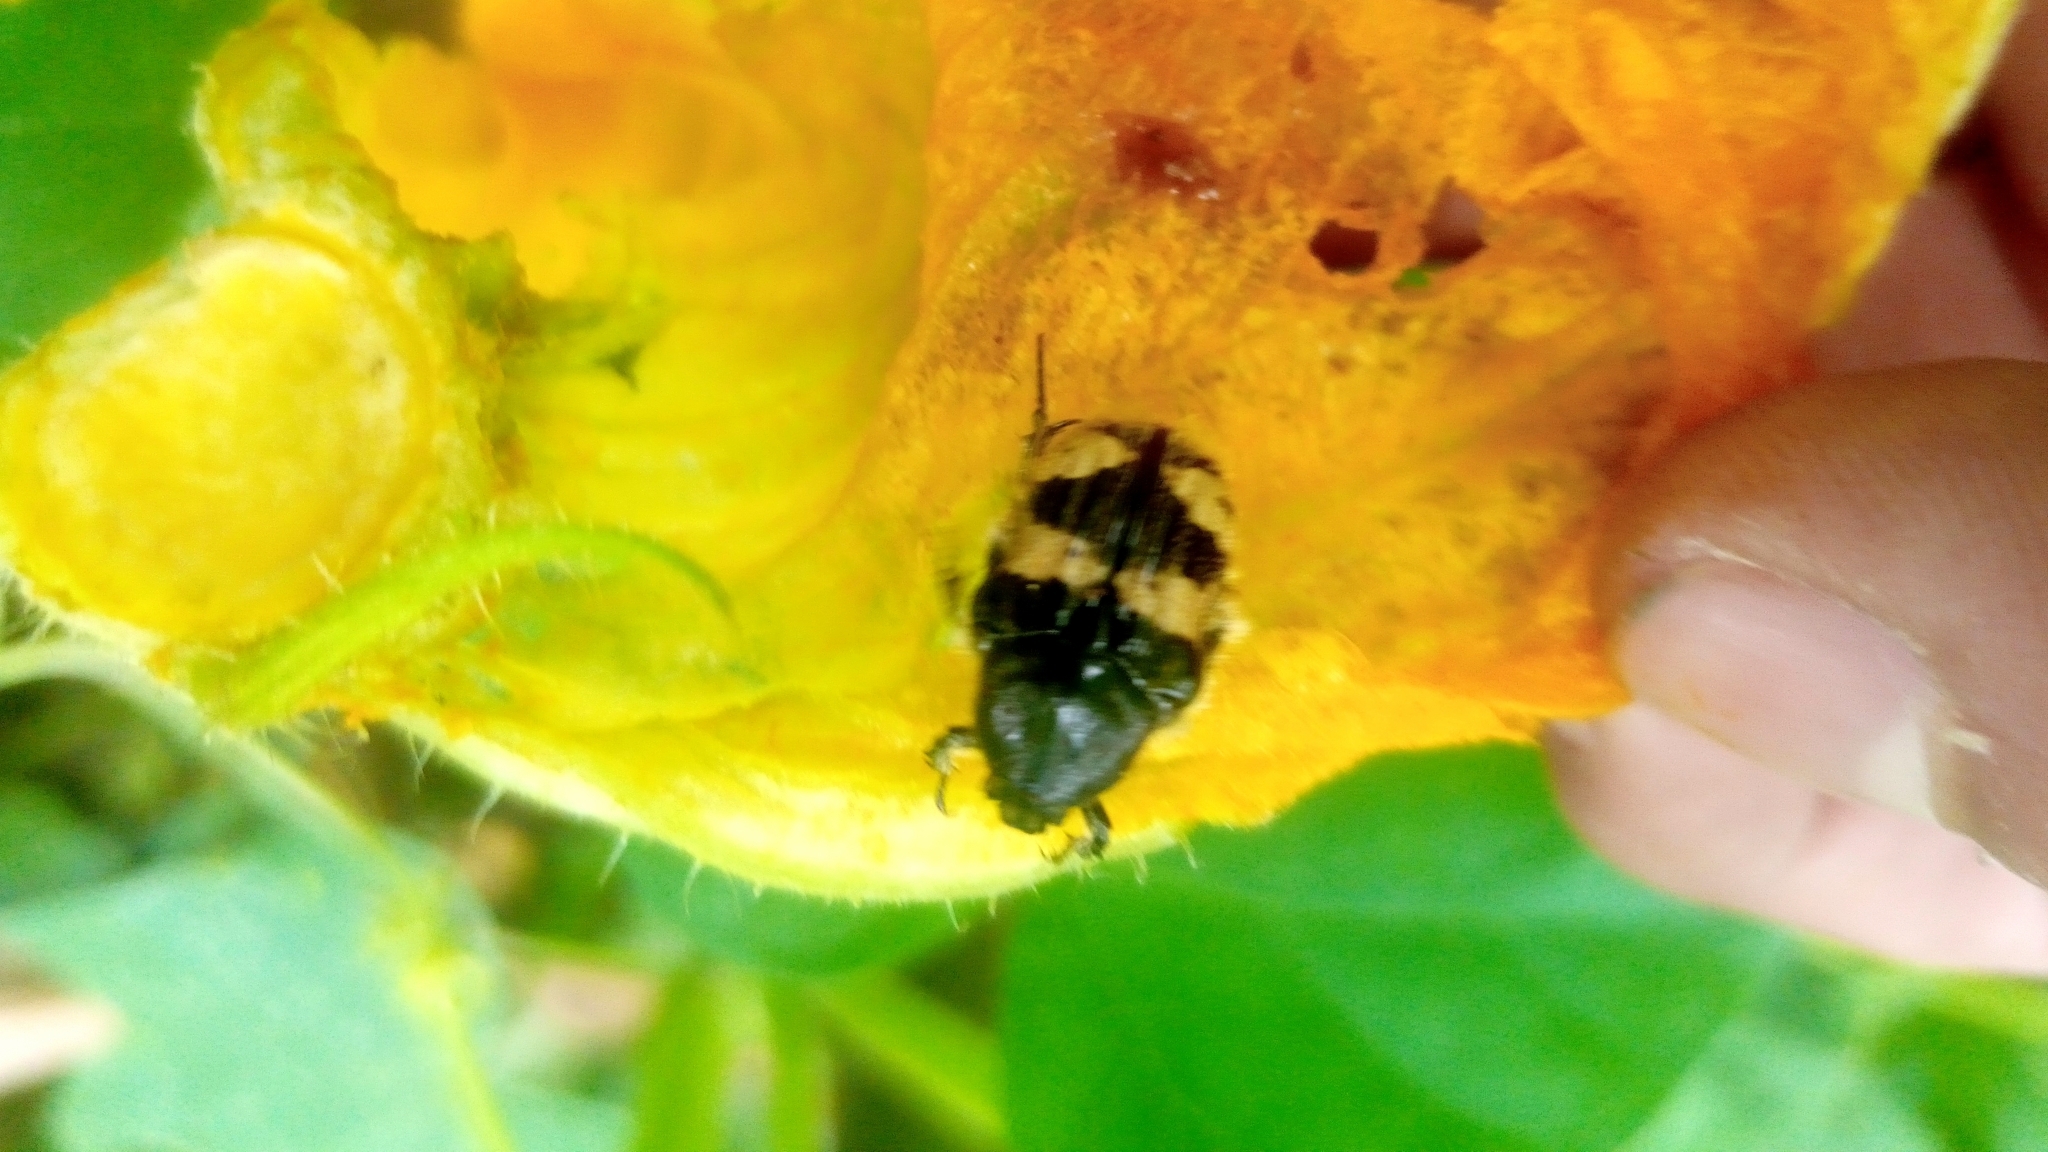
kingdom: Animalia
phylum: Arthropoda
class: Insecta
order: Coleoptera
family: Scarabaeidae
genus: Euphoria
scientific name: Euphoria basalis
